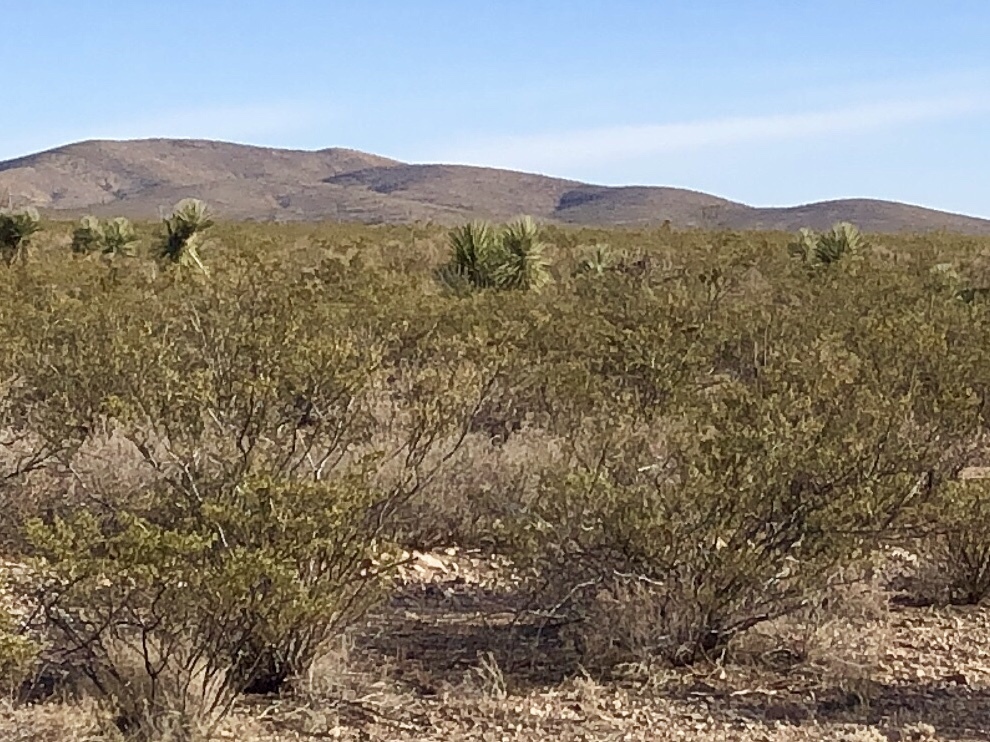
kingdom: Plantae
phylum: Tracheophyta
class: Magnoliopsida
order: Zygophyllales
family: Zygophyllaceae
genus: Larrea
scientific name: Larrea tridentata
